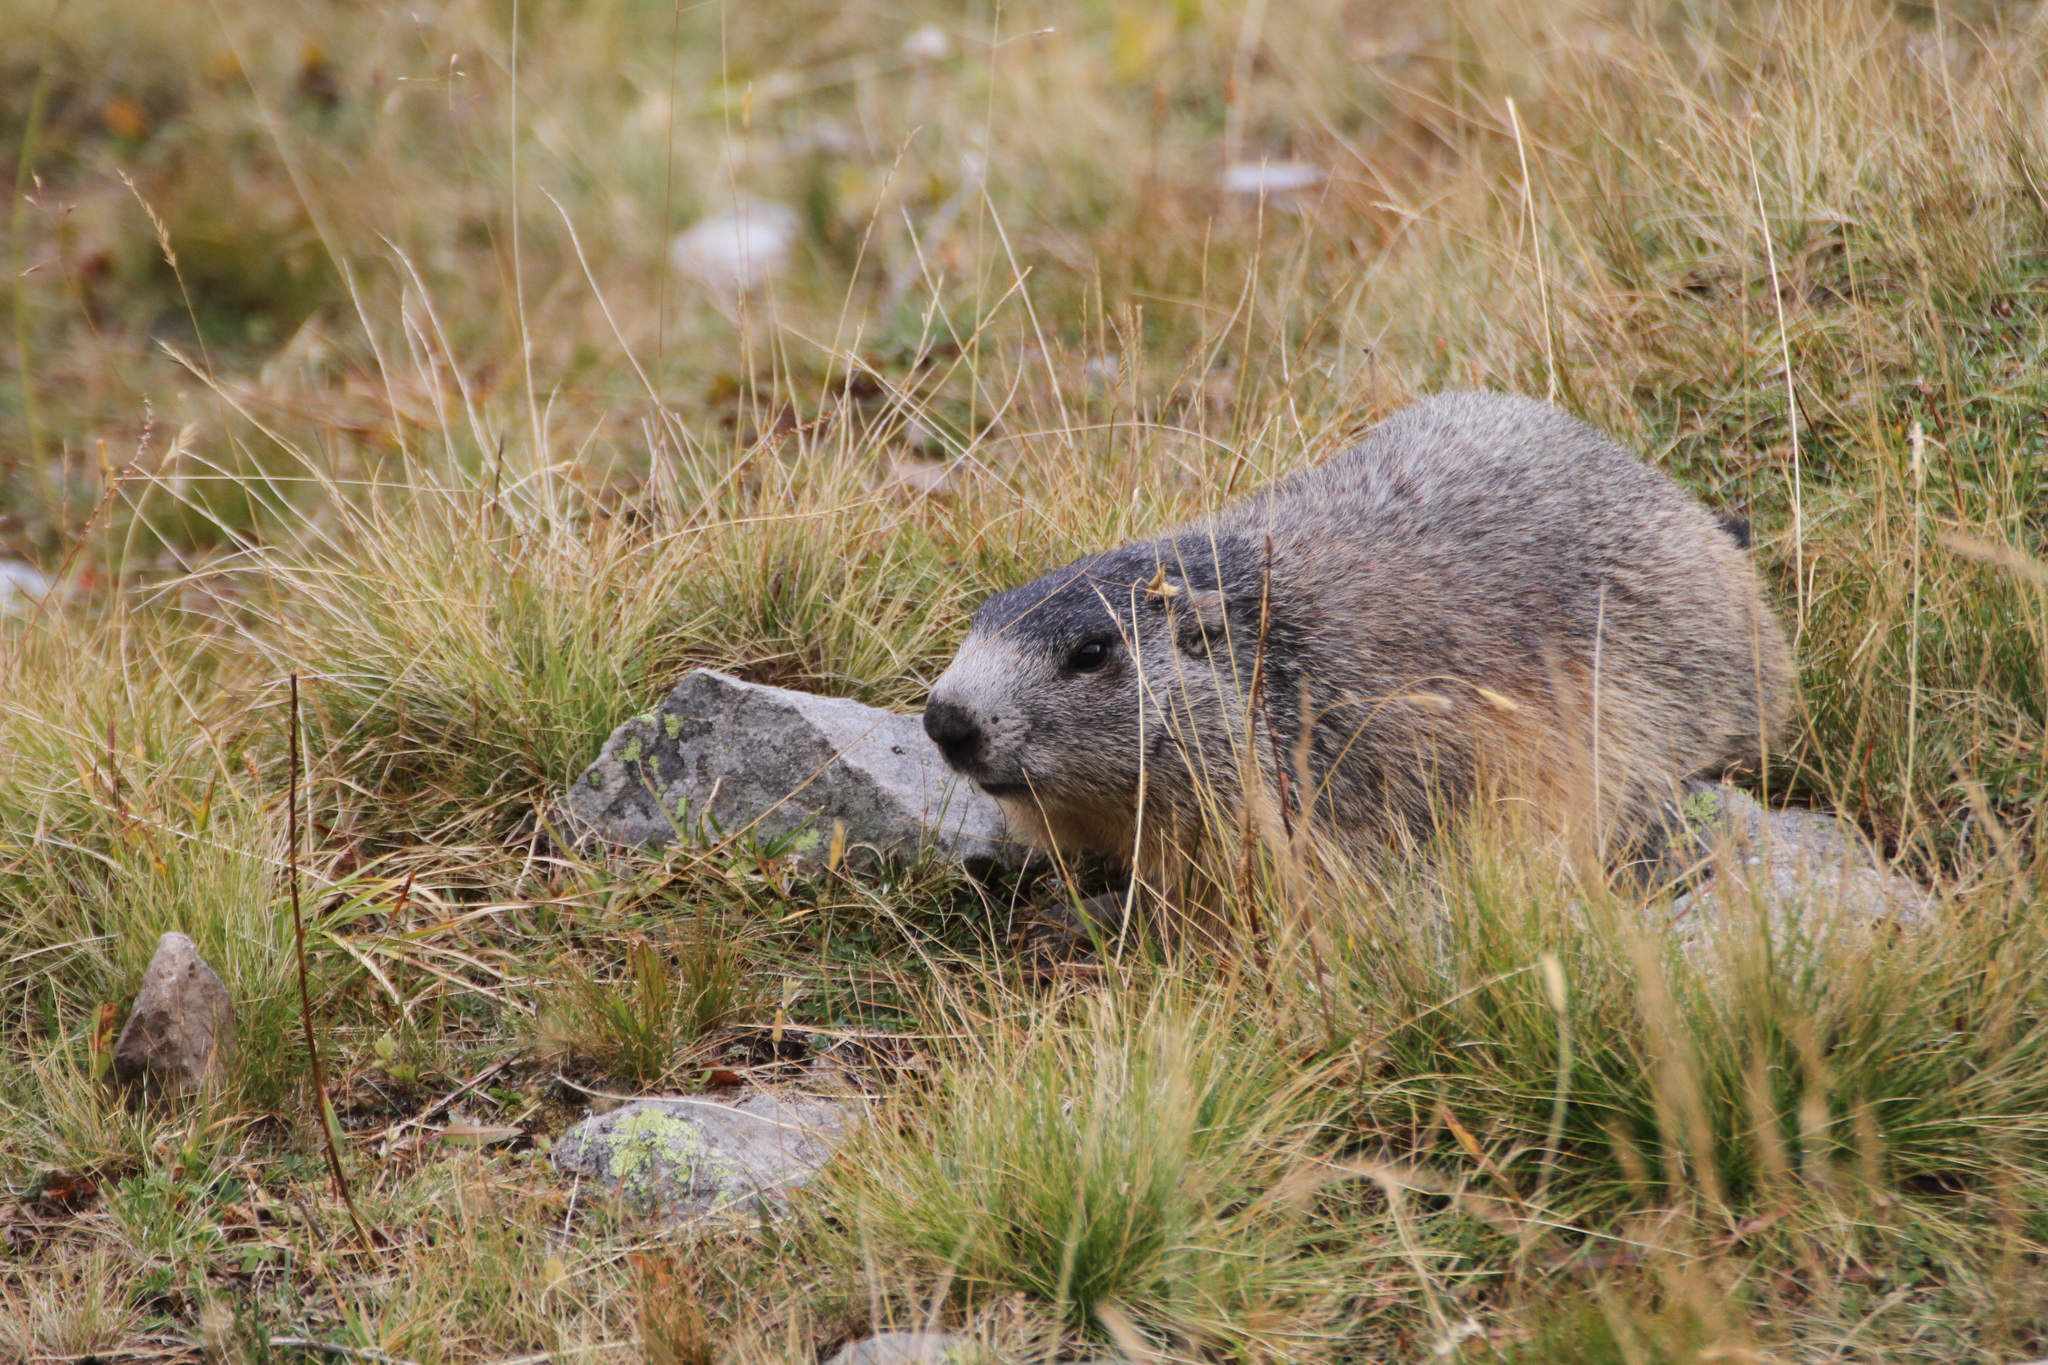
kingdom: Animalia
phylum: Chordata
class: Mammalia
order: Rodentia
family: Sciuridae
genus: Marmota
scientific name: Marmota marmota
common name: Alpine marmot
